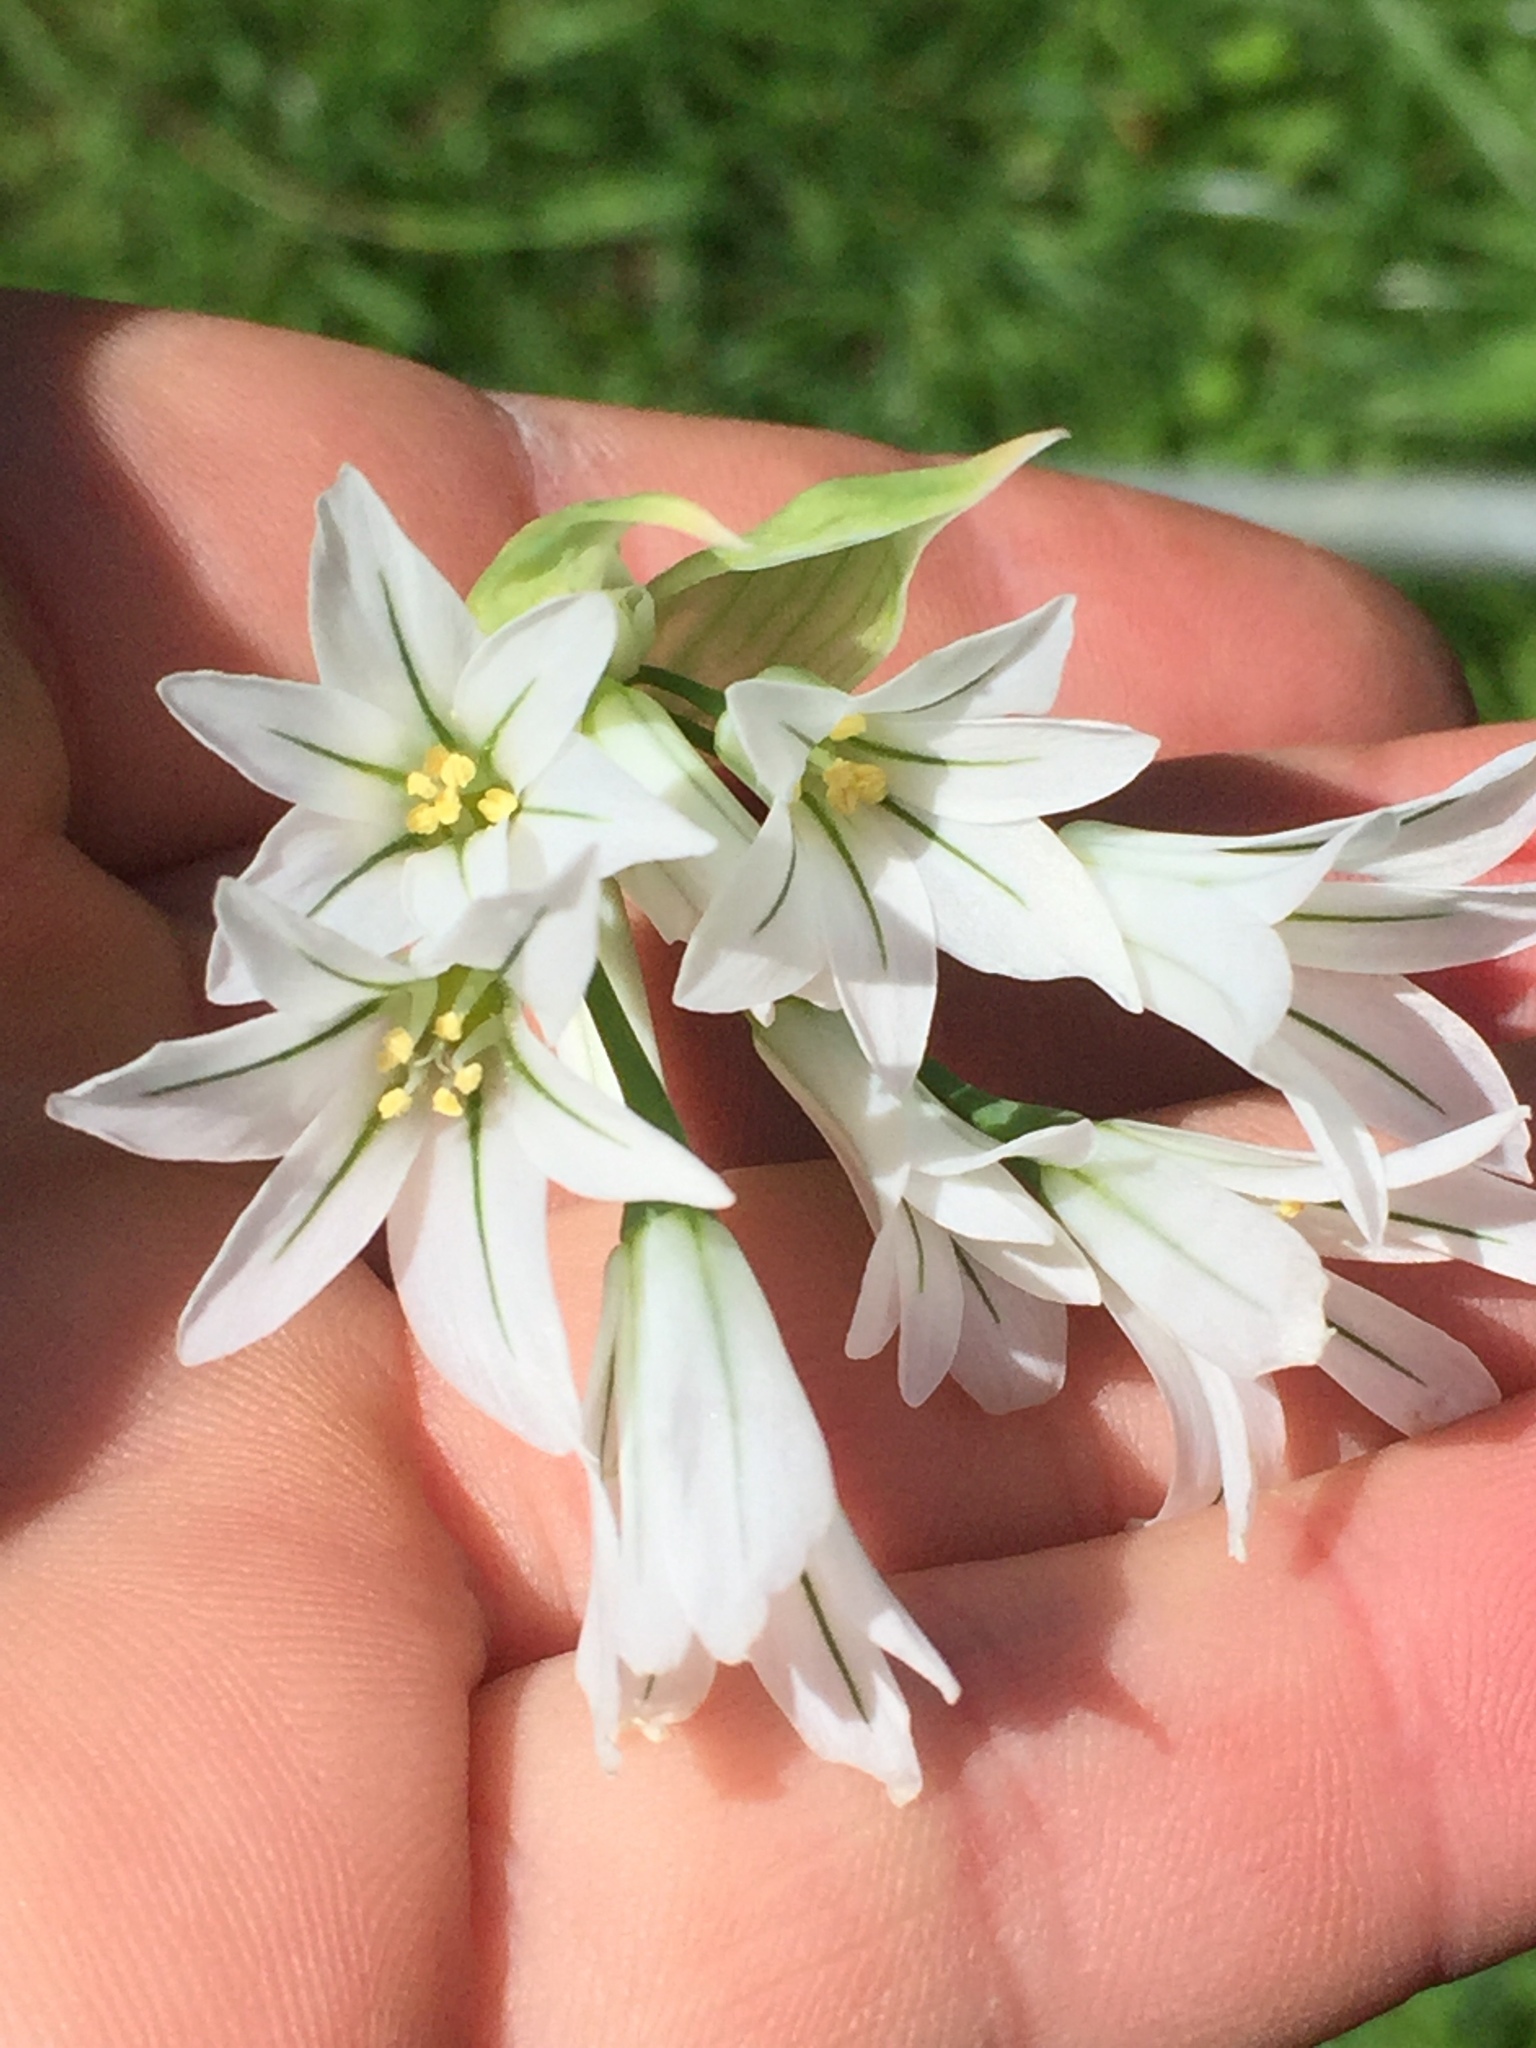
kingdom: Plantae
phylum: Tracheophyta
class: Liliopsida
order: Asparagales
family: Amaryllidaceae
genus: Allium
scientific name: Allium triquetrum
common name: Three-cornered garlic
